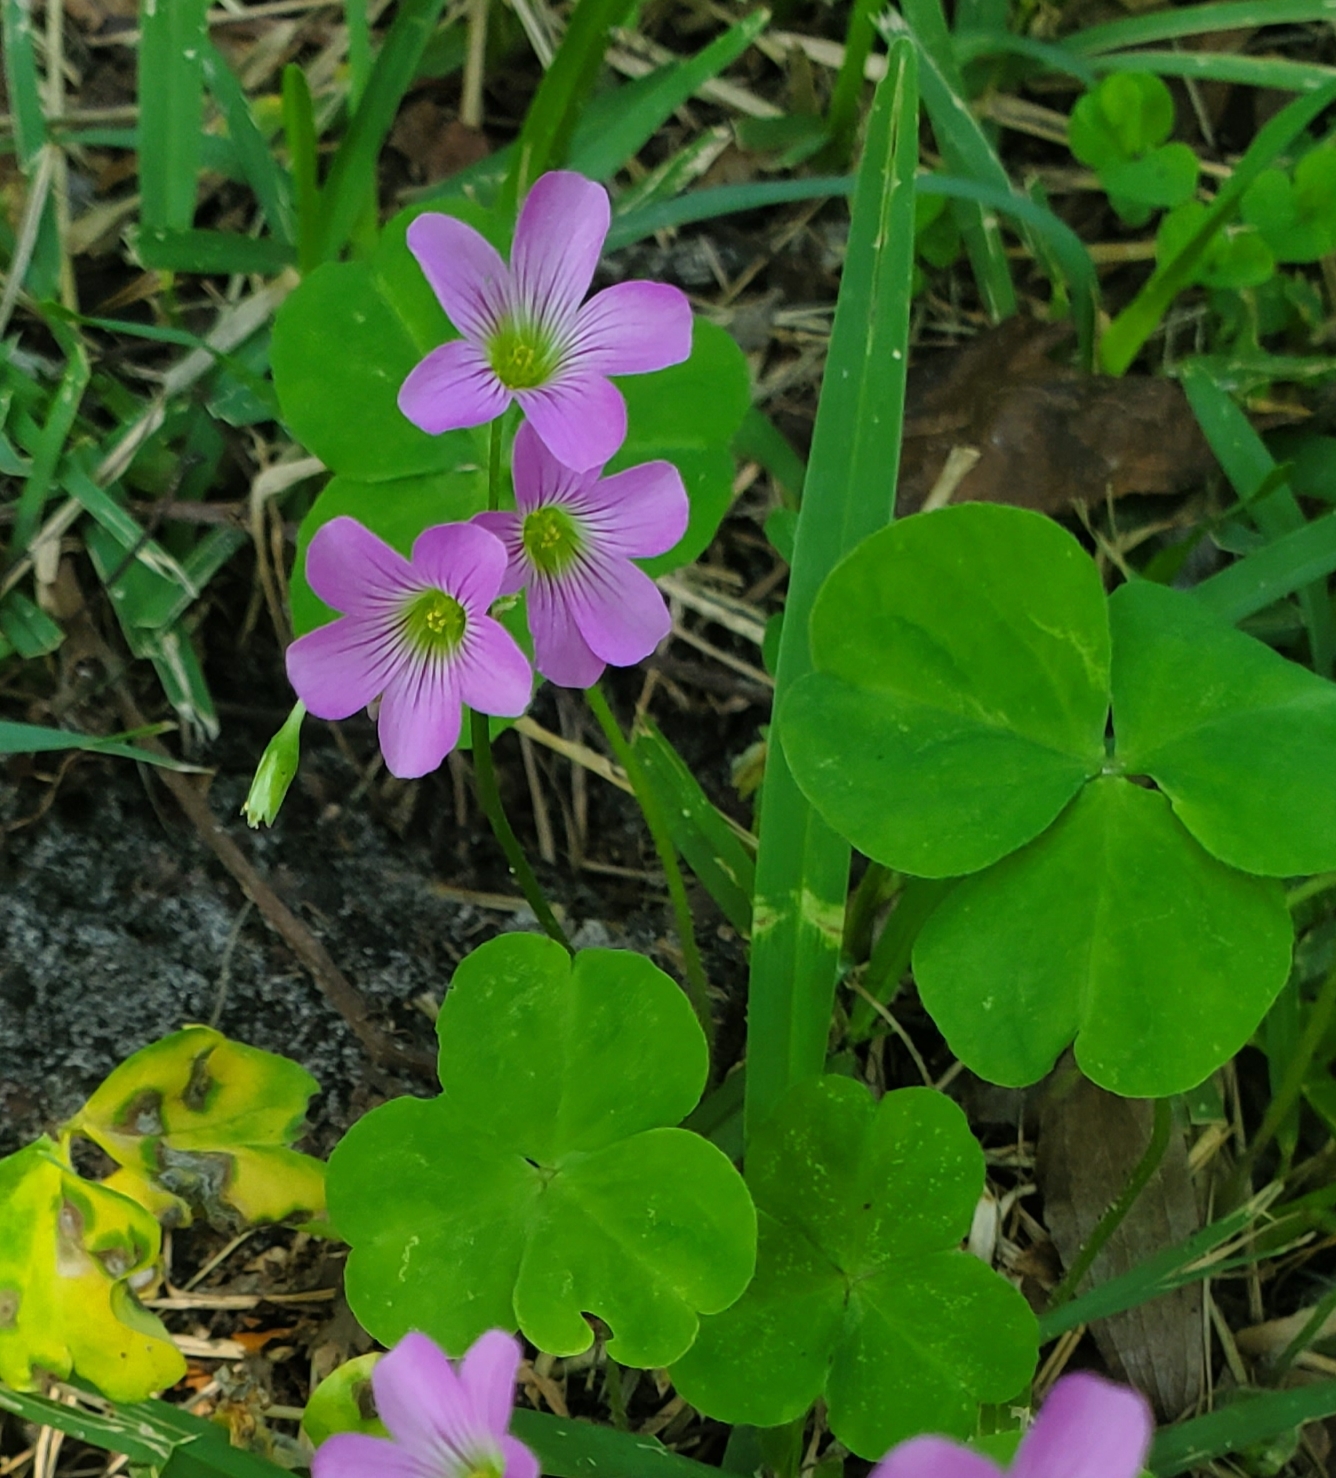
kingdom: Plantae
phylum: Tracheophyta
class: Magnoliopsida
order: Oxalidales
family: Oxalidaceae
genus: Oxalis
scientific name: Oxalis debilis
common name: Large-flowered pink-sorrel
